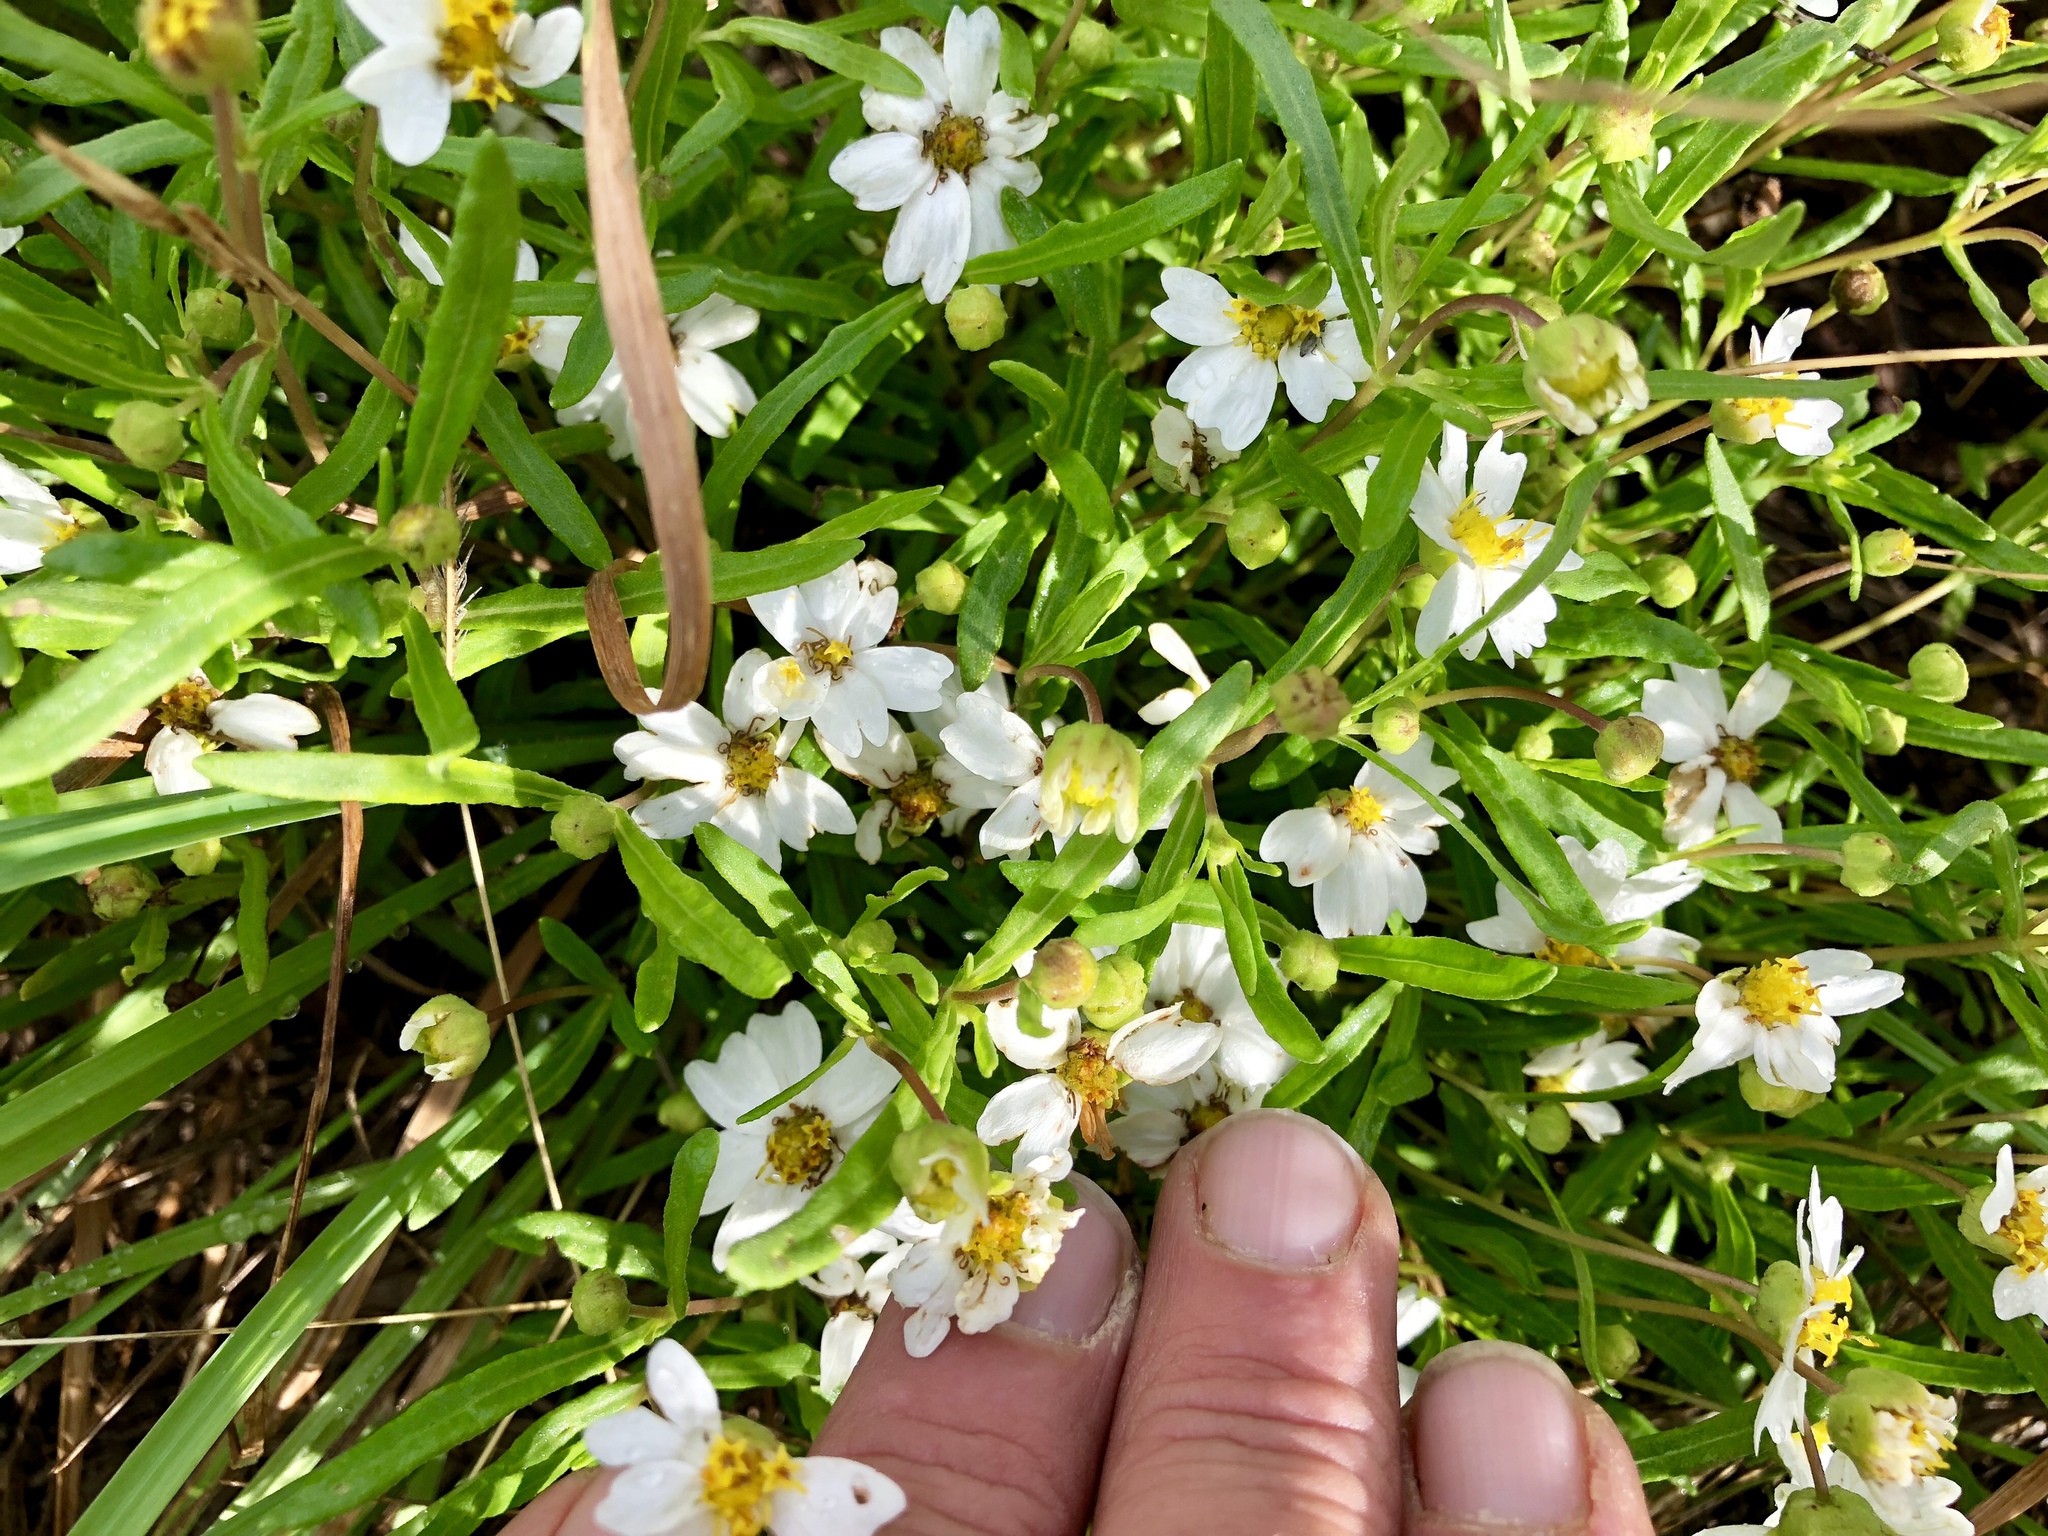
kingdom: Plantae
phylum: Tracheophyta
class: Magnoliopsida
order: Asterales
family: Asteraceae
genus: Melampodium
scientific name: Melampodium leucanthum
